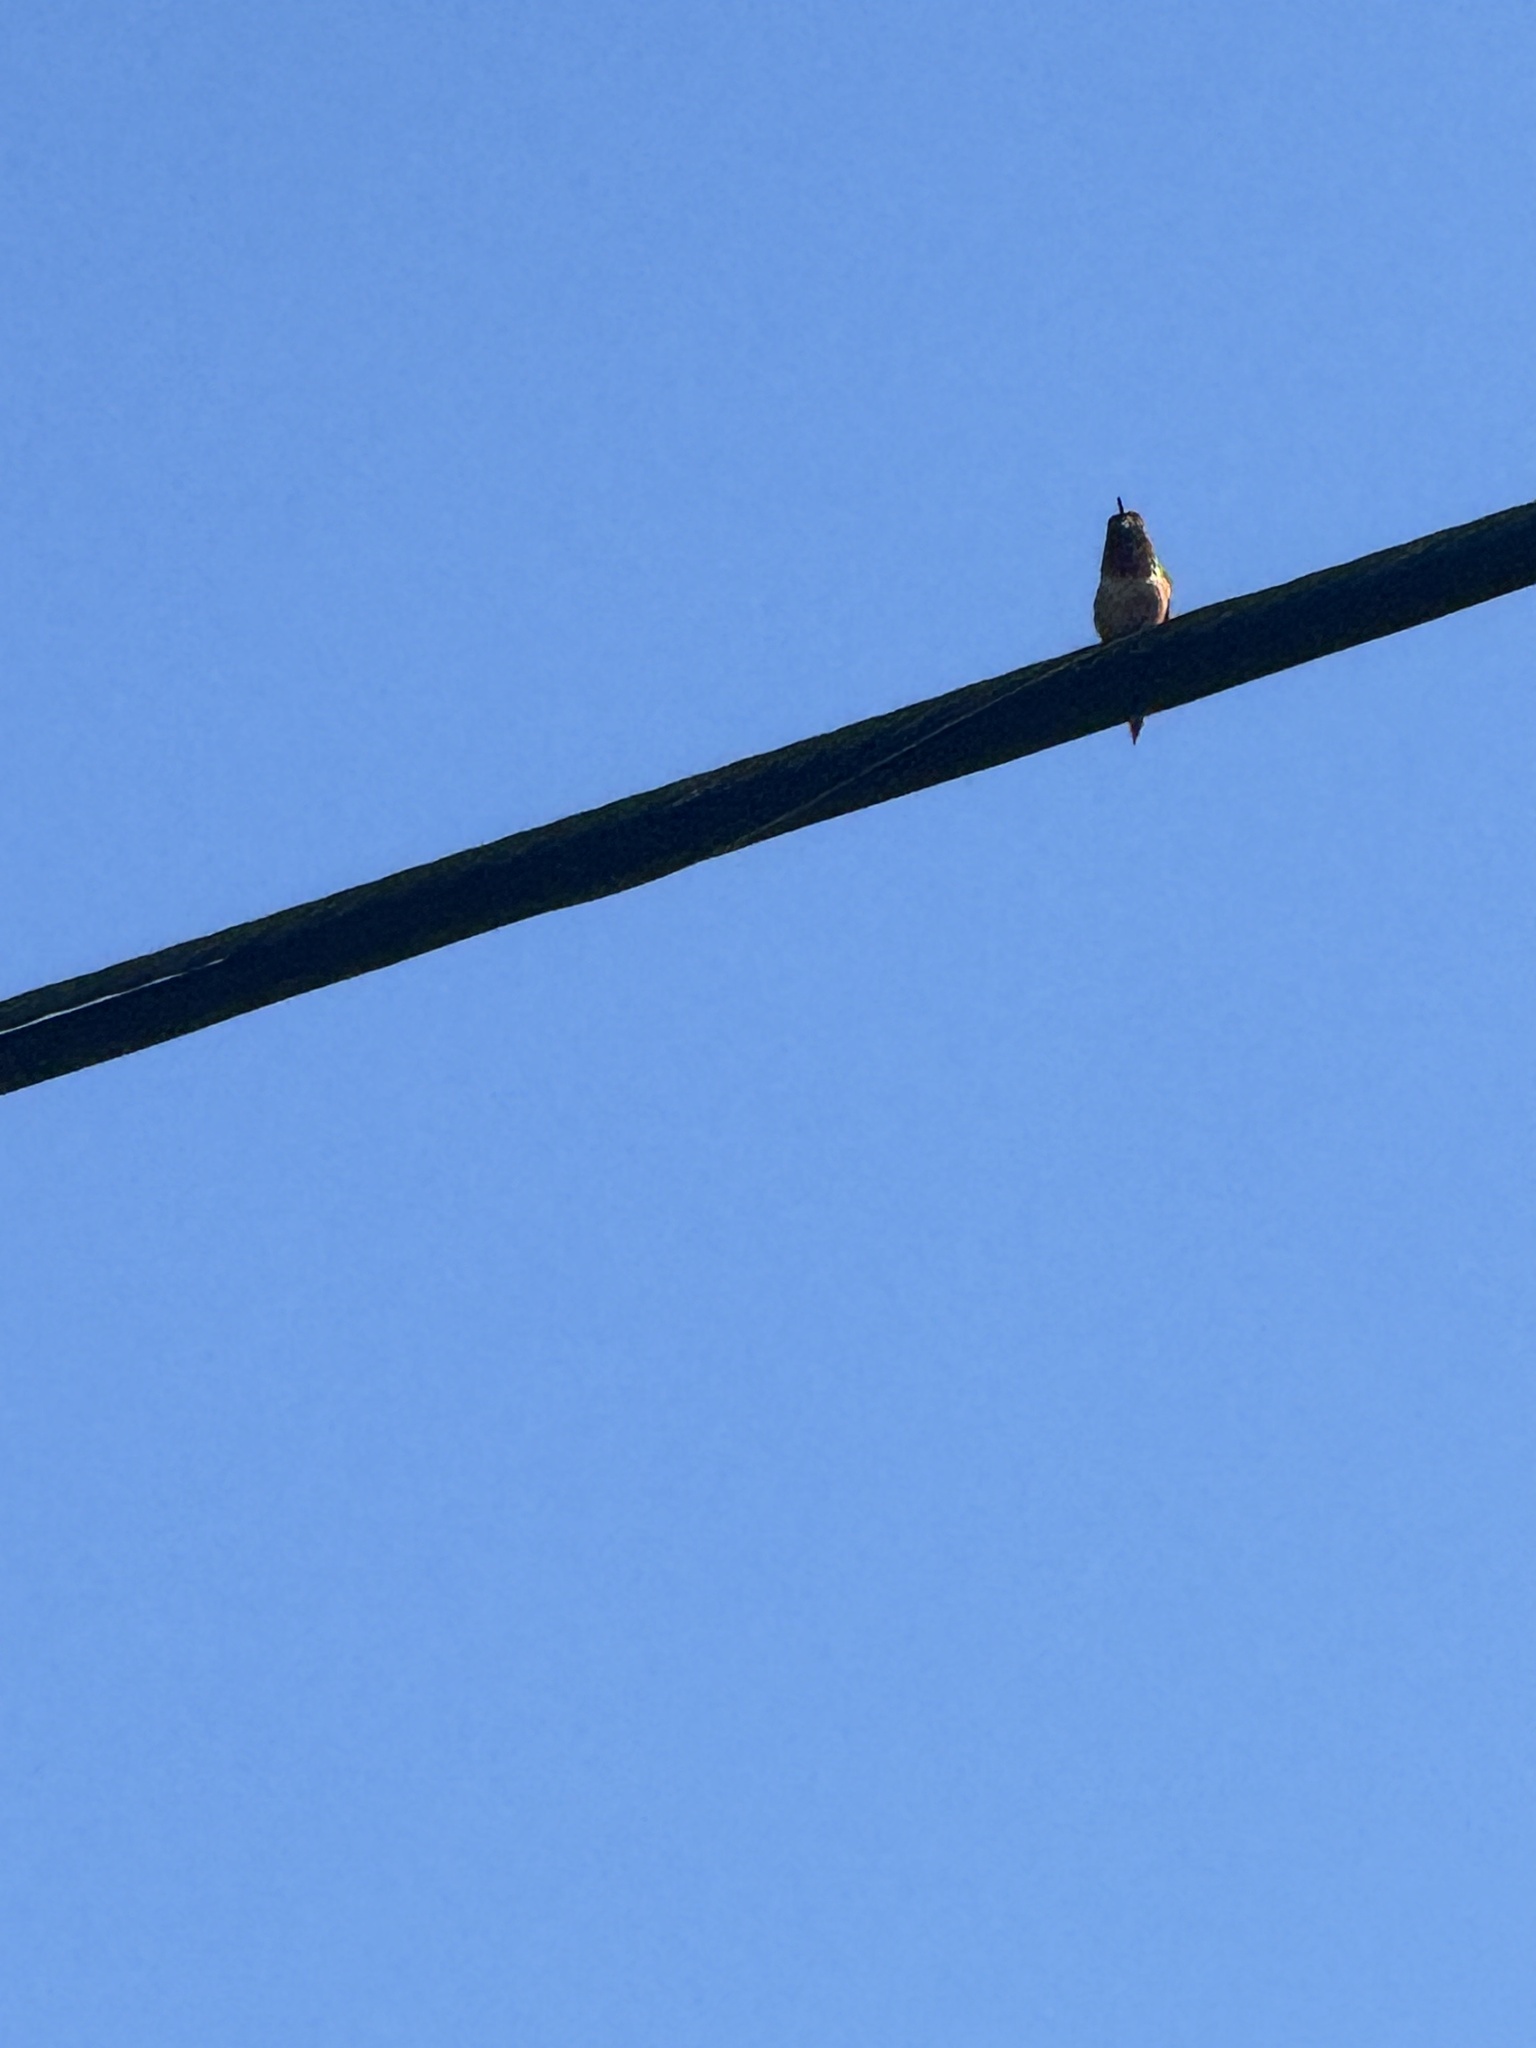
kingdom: Animalia
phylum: Chordata
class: Aves
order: Apodiformes
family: Trochilidae
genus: Calypte
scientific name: Calypte anna
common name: Anna's hummingbird
